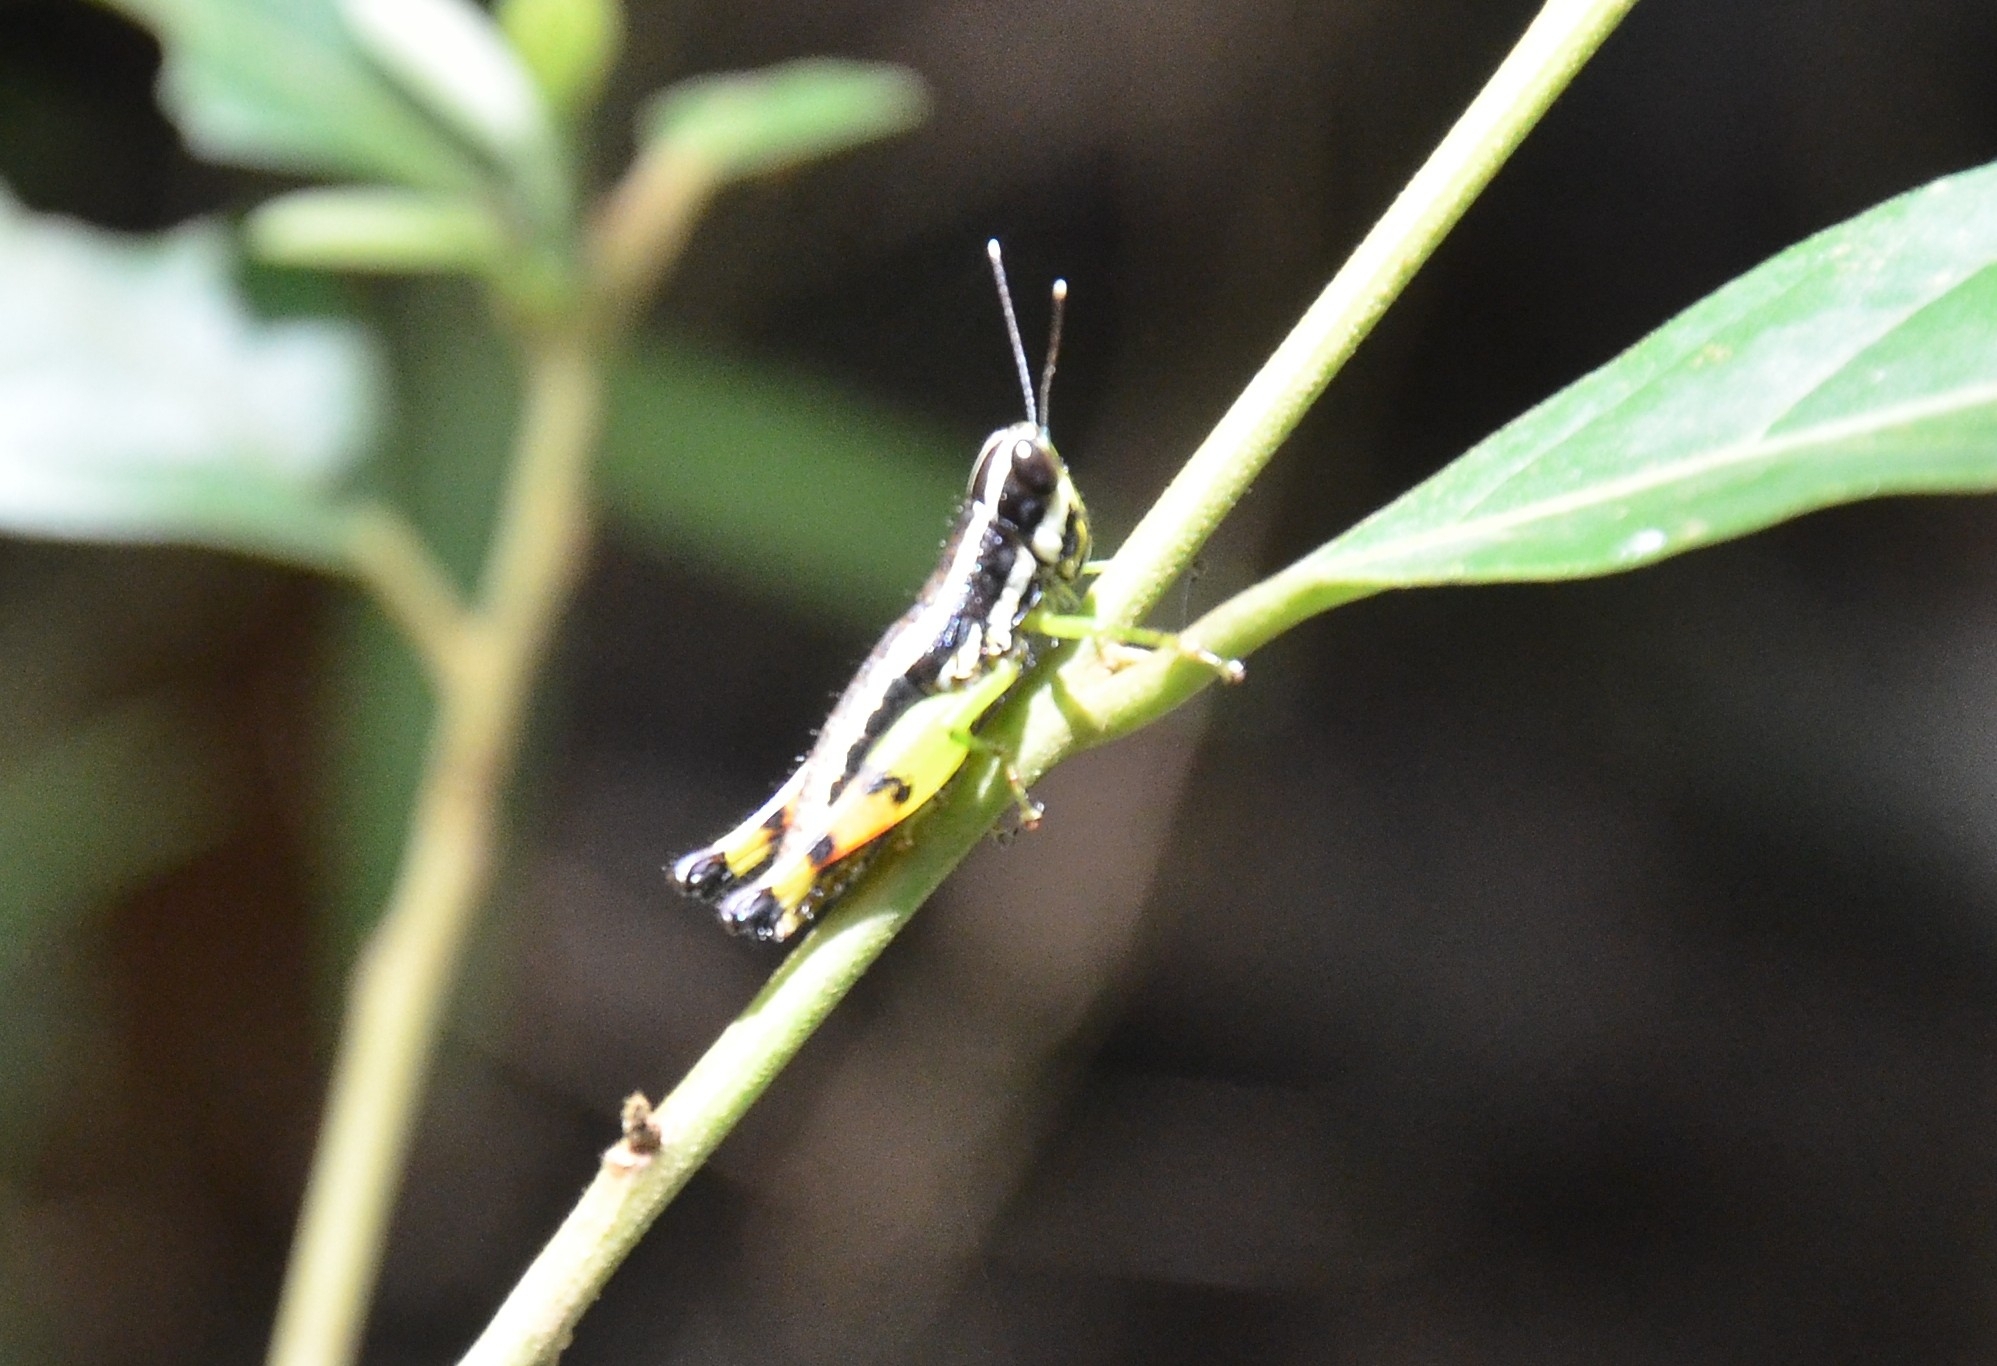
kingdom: Animalia
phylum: Arthropoda
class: Insecta
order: Orthoptera
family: Acrididae
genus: Chitaura
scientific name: Chitaura indica
